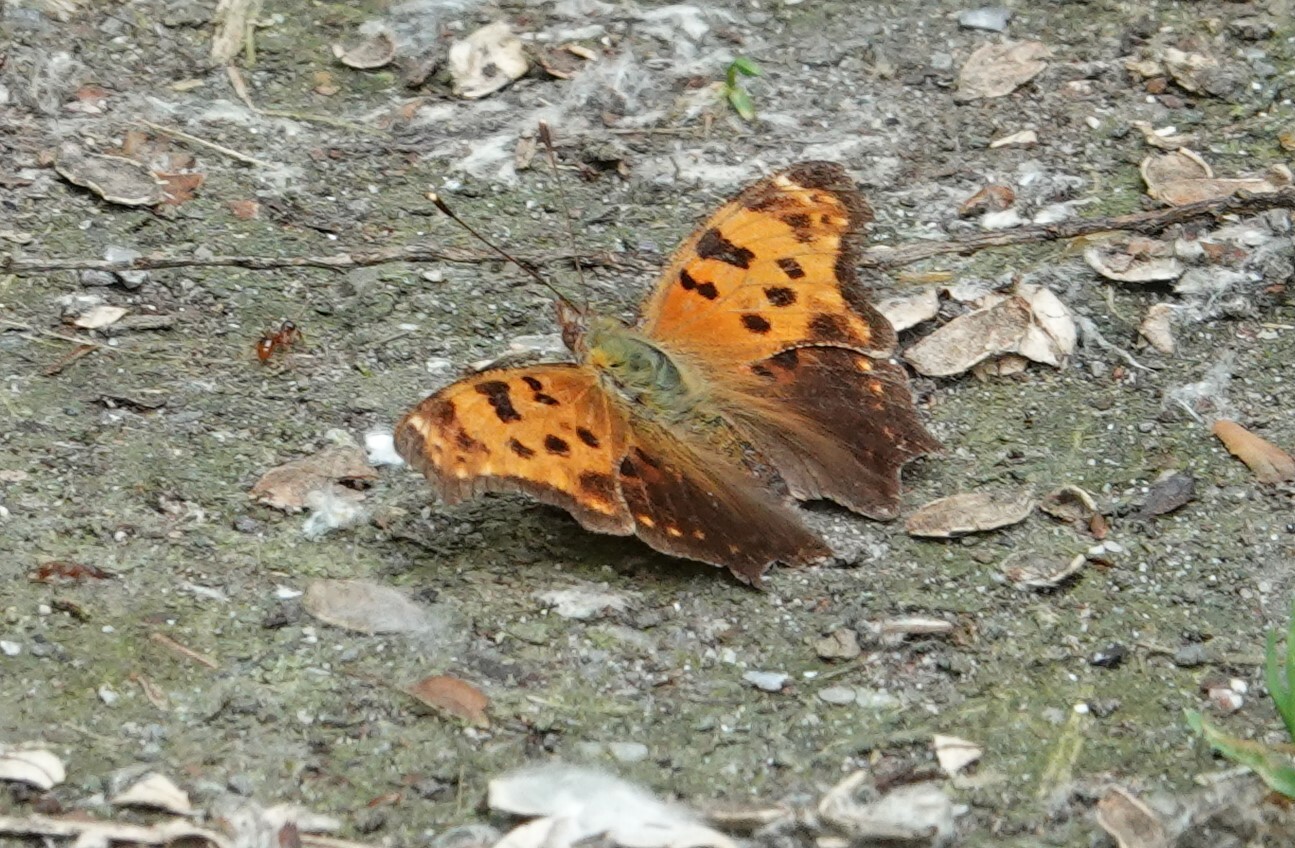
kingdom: Animalia
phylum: Arthropoda
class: Insecta
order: Lepidoptera
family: Nymphalidae
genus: Polygonia
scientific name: Polygonia comma
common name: Eastern comma
